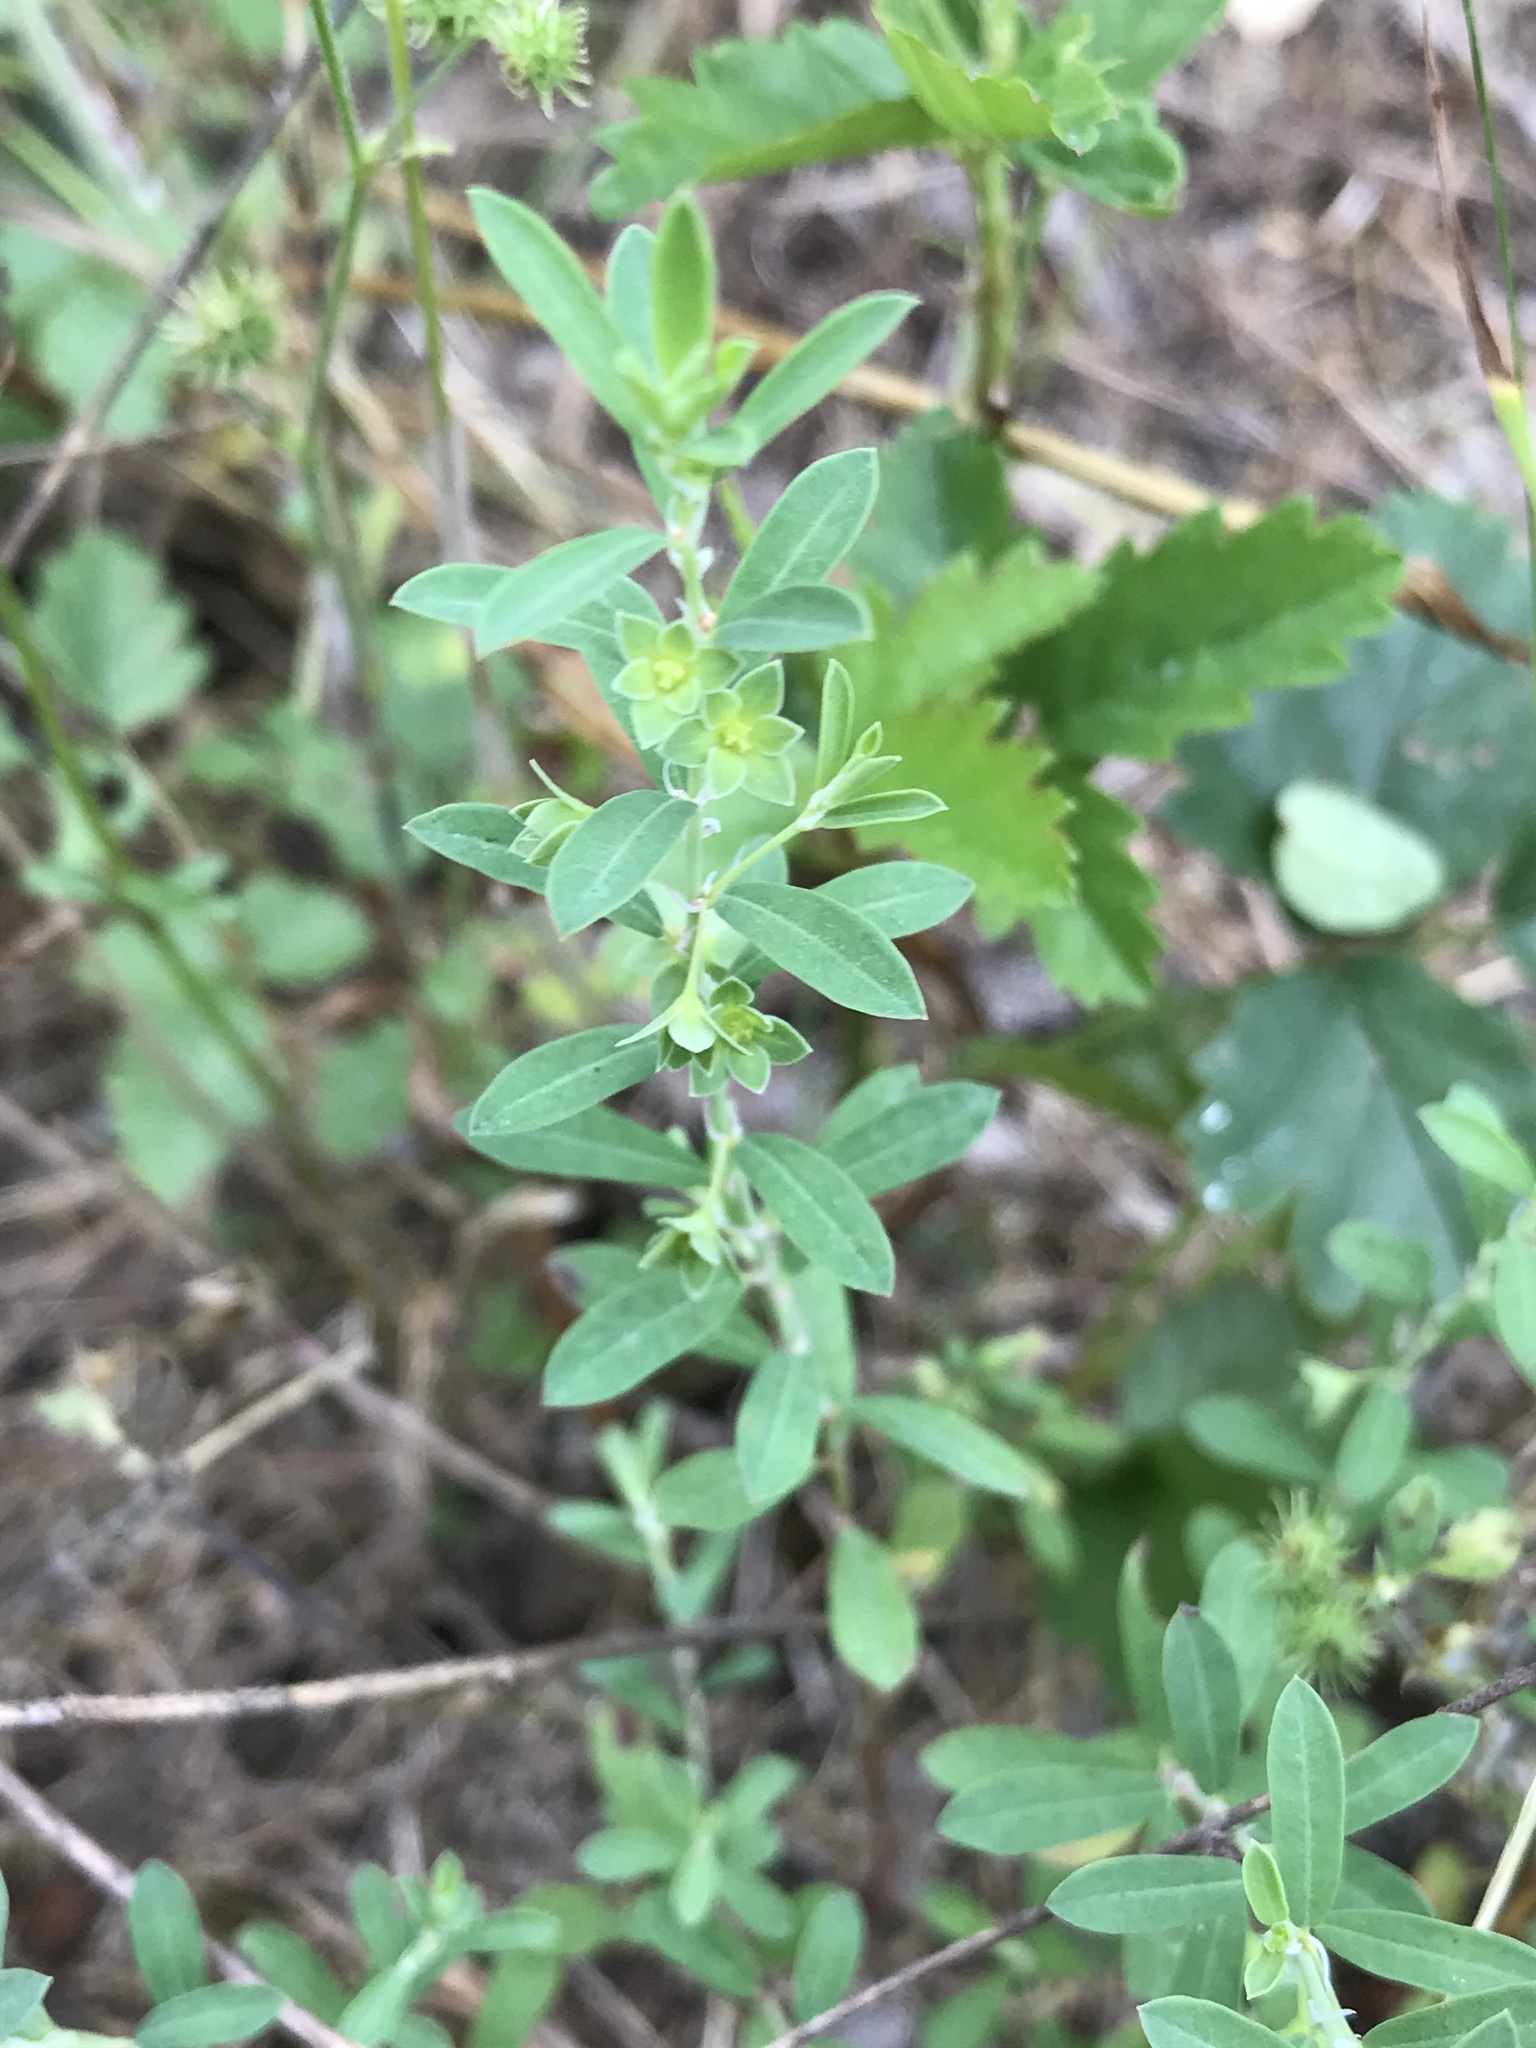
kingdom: Plantae
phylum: Tracheophyta
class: Magnoliopsida
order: Malpighiales
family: Phyllanthaceae
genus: Phyllanthus
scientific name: Phyllanthus polygonoides
